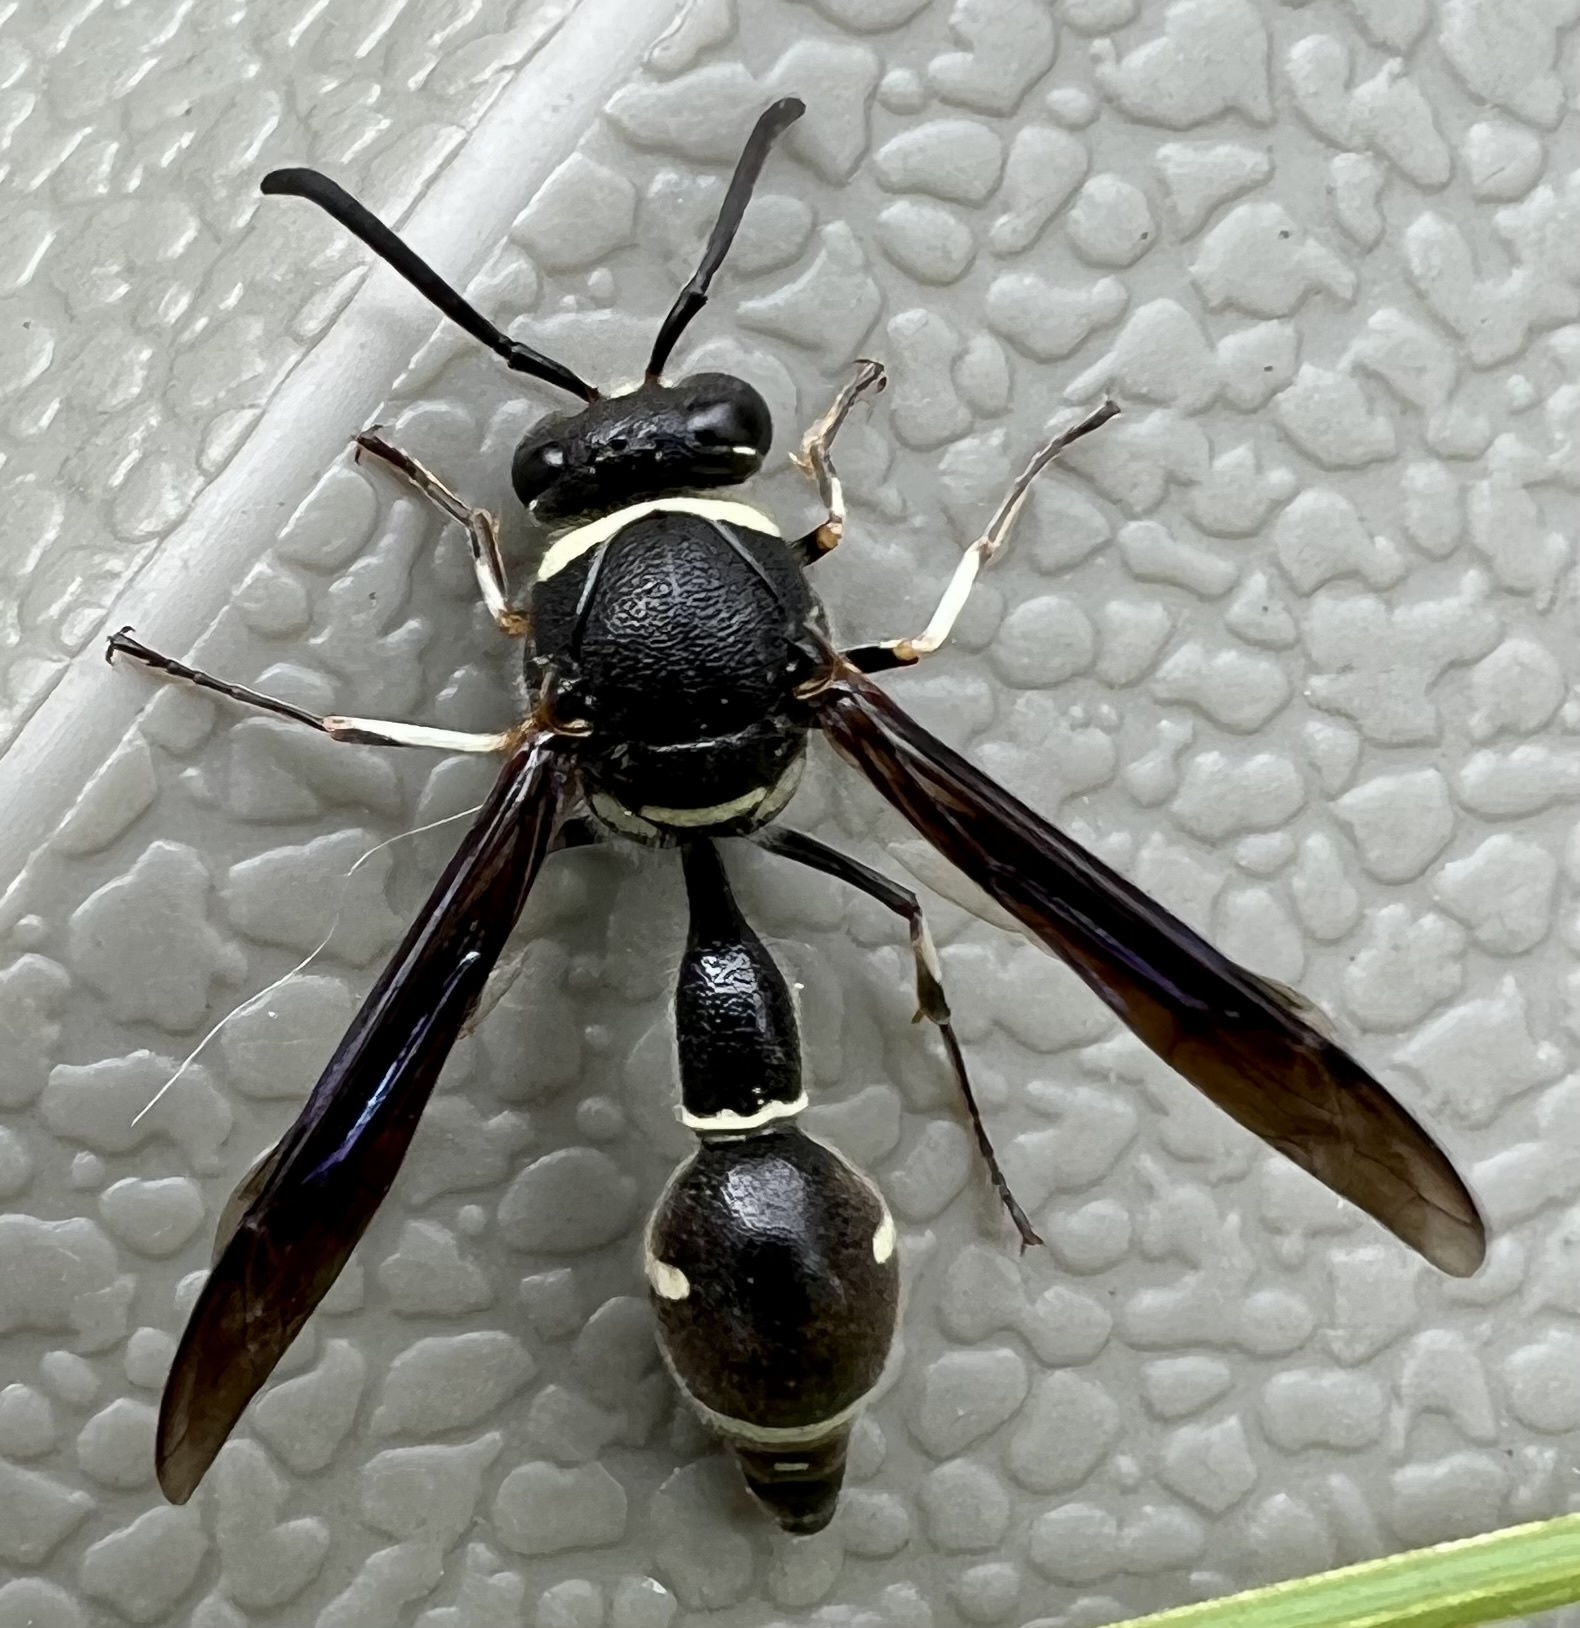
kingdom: Animalia
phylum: Arthropoda
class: Insecta
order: Hymenoptera
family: Vespidae
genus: Eumenes
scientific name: Eumenes fraternus
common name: Fraternal potter wasp
